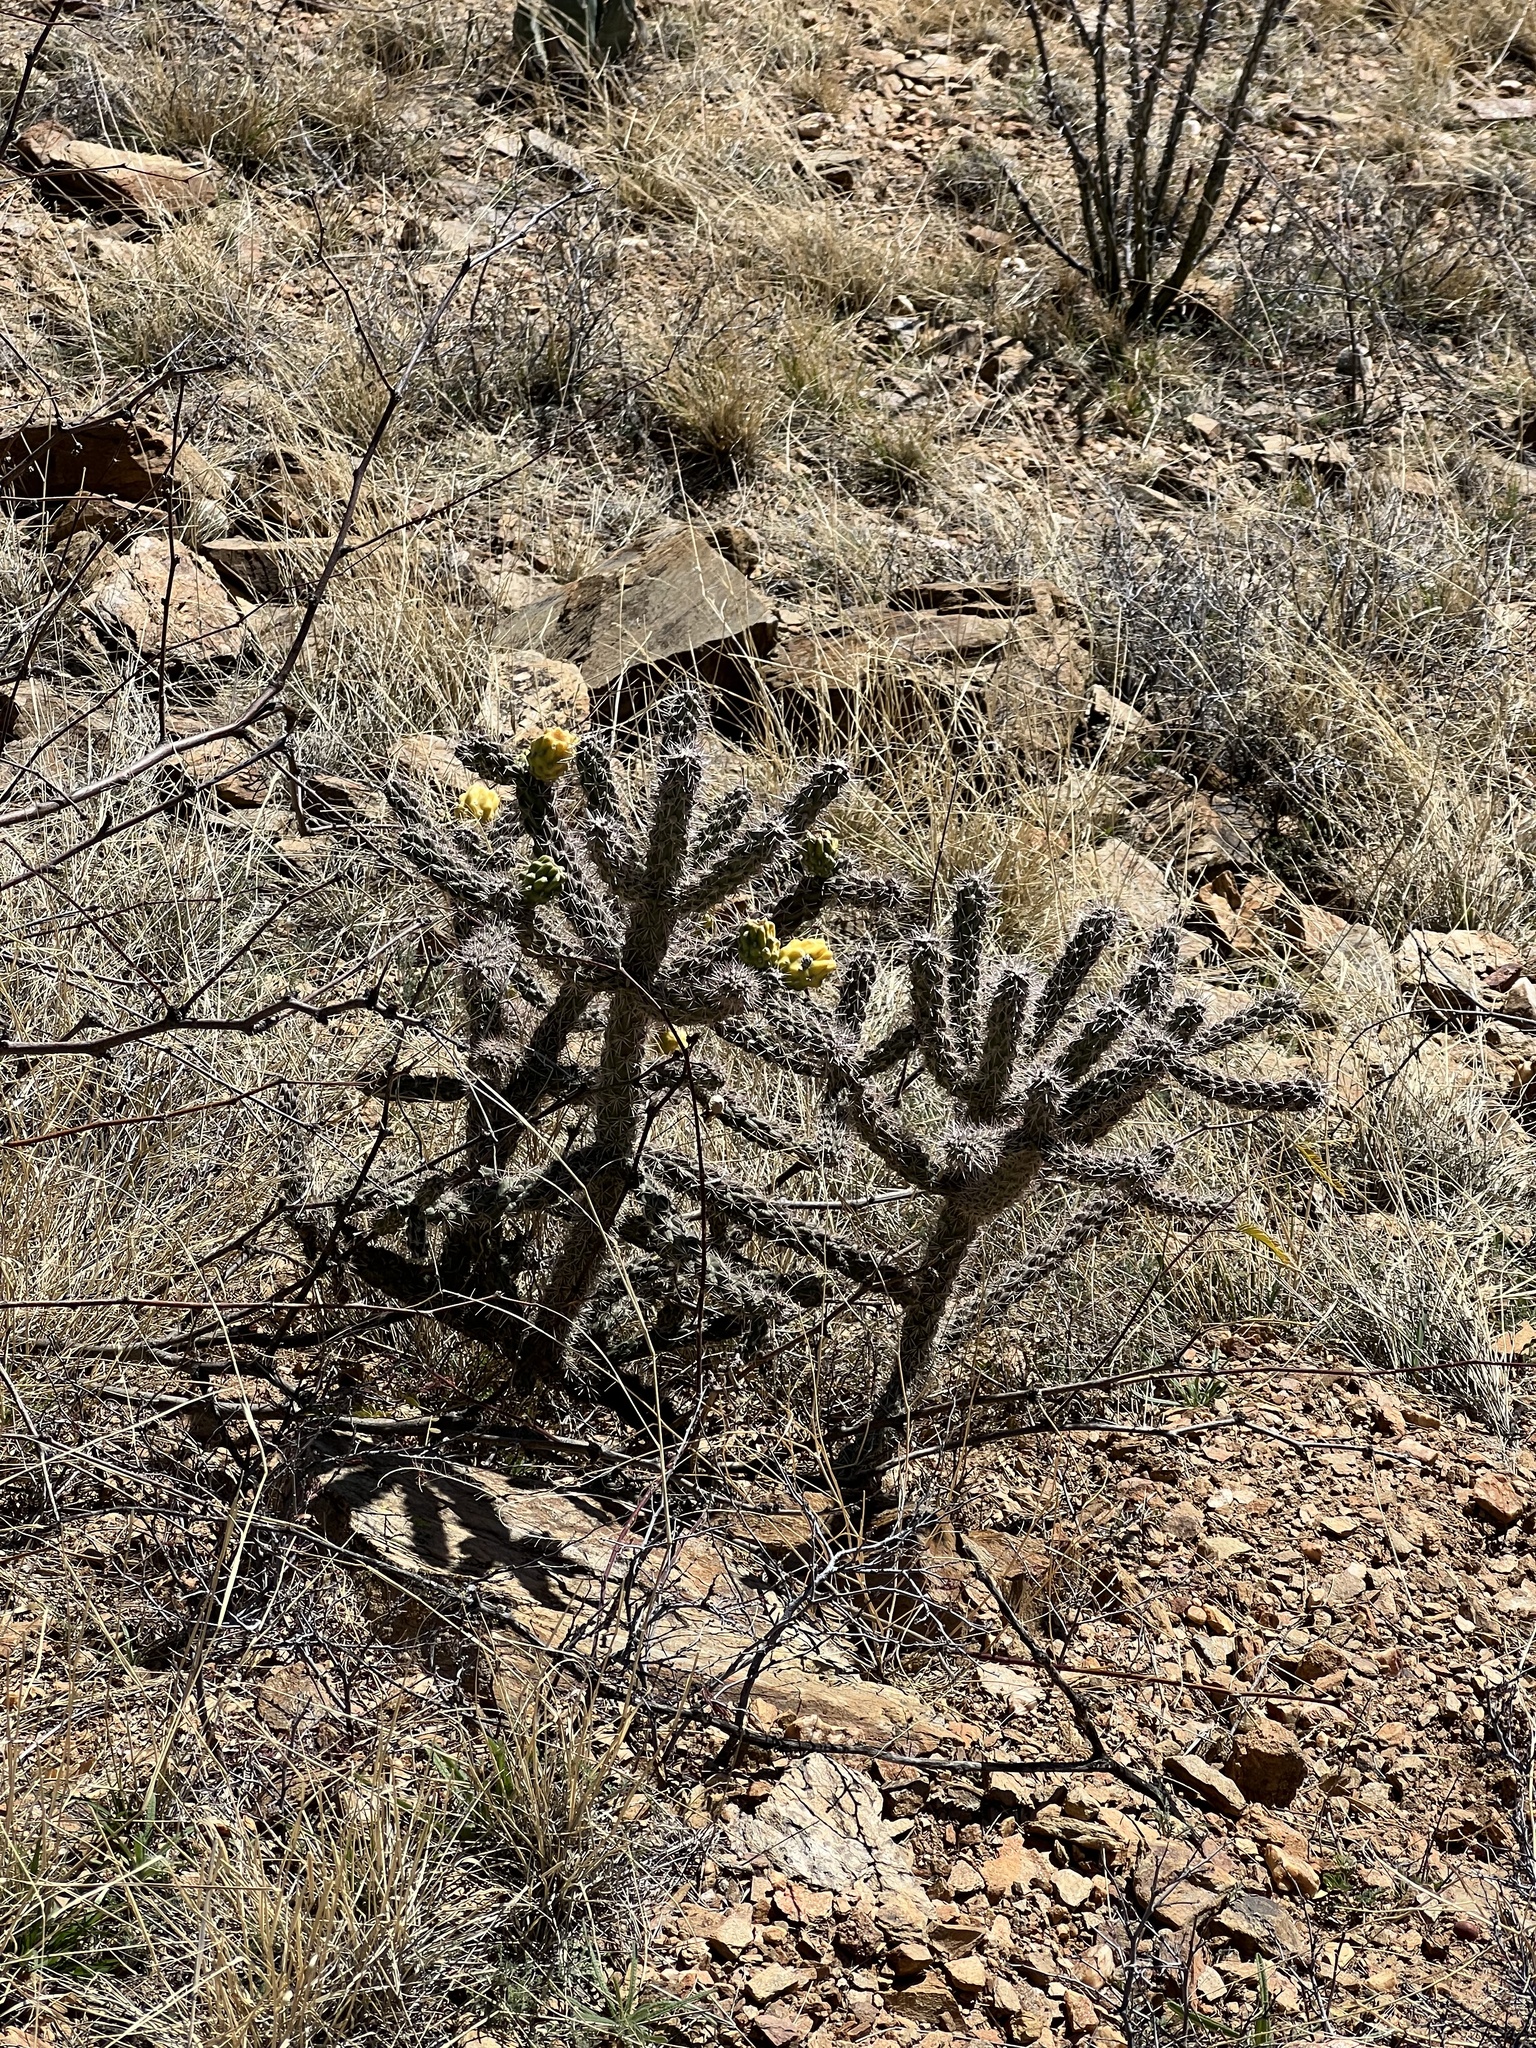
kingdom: Plantae
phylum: Tracheophyta
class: Magnoliopsida
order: Caryophyllales
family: Cactaceae
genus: Cylindropuntia
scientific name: Cylindropuntia imbricata
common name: Candelabrum cactus
